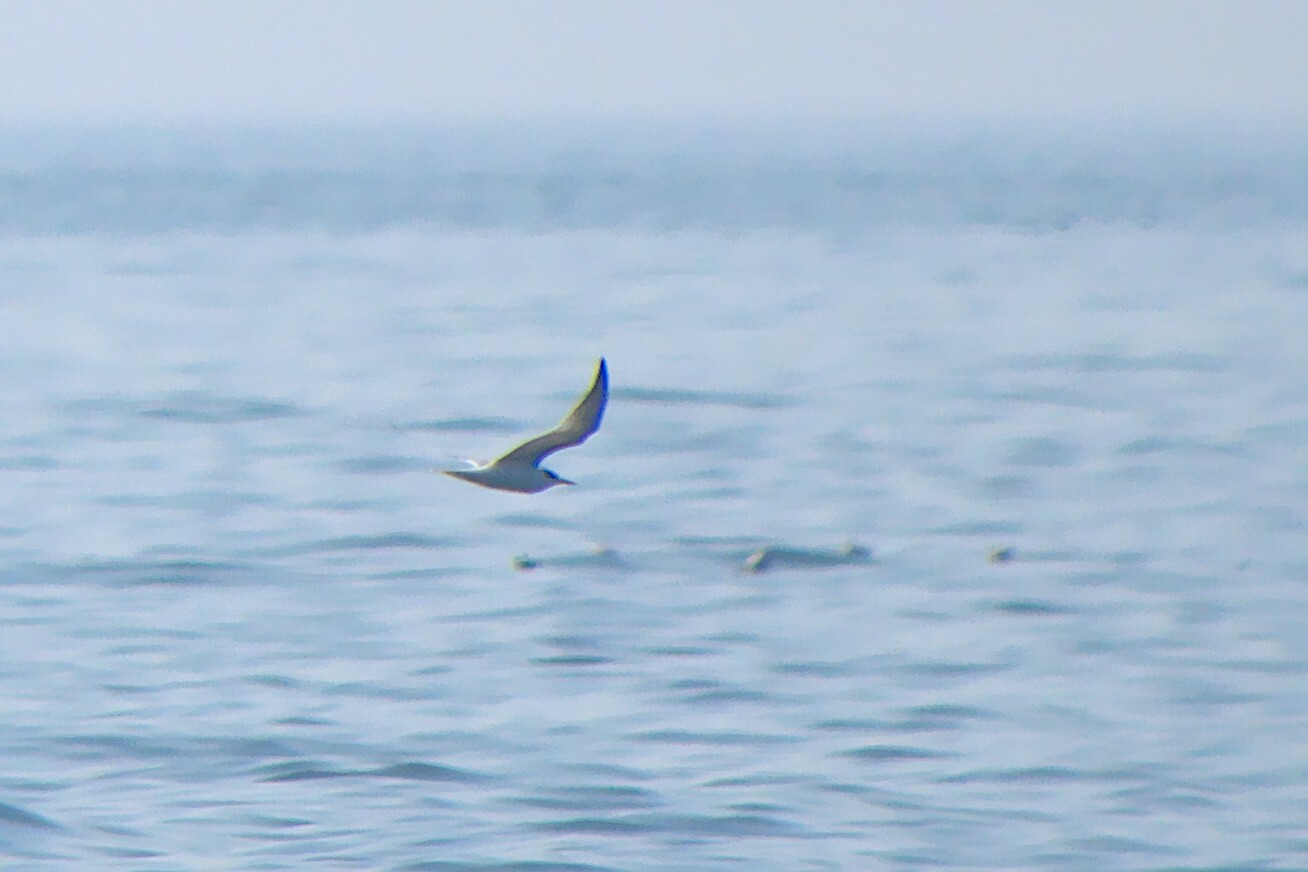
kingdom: Animalia
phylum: Chordata
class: Aves
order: Charadriiformes
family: Laridae
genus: Sterna
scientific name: Sterna hirundo
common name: Common tern
